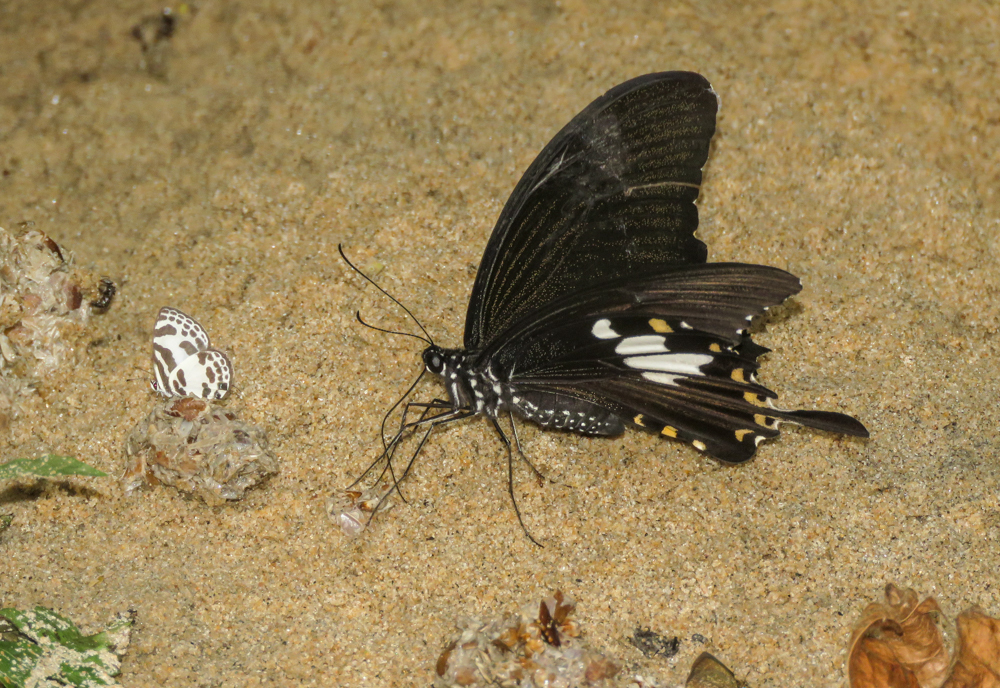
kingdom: Animalia
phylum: Arthropoda
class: Insecta
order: Lepidoptera
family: Papilionidae
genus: Papilio
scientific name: Papilio nephelus
